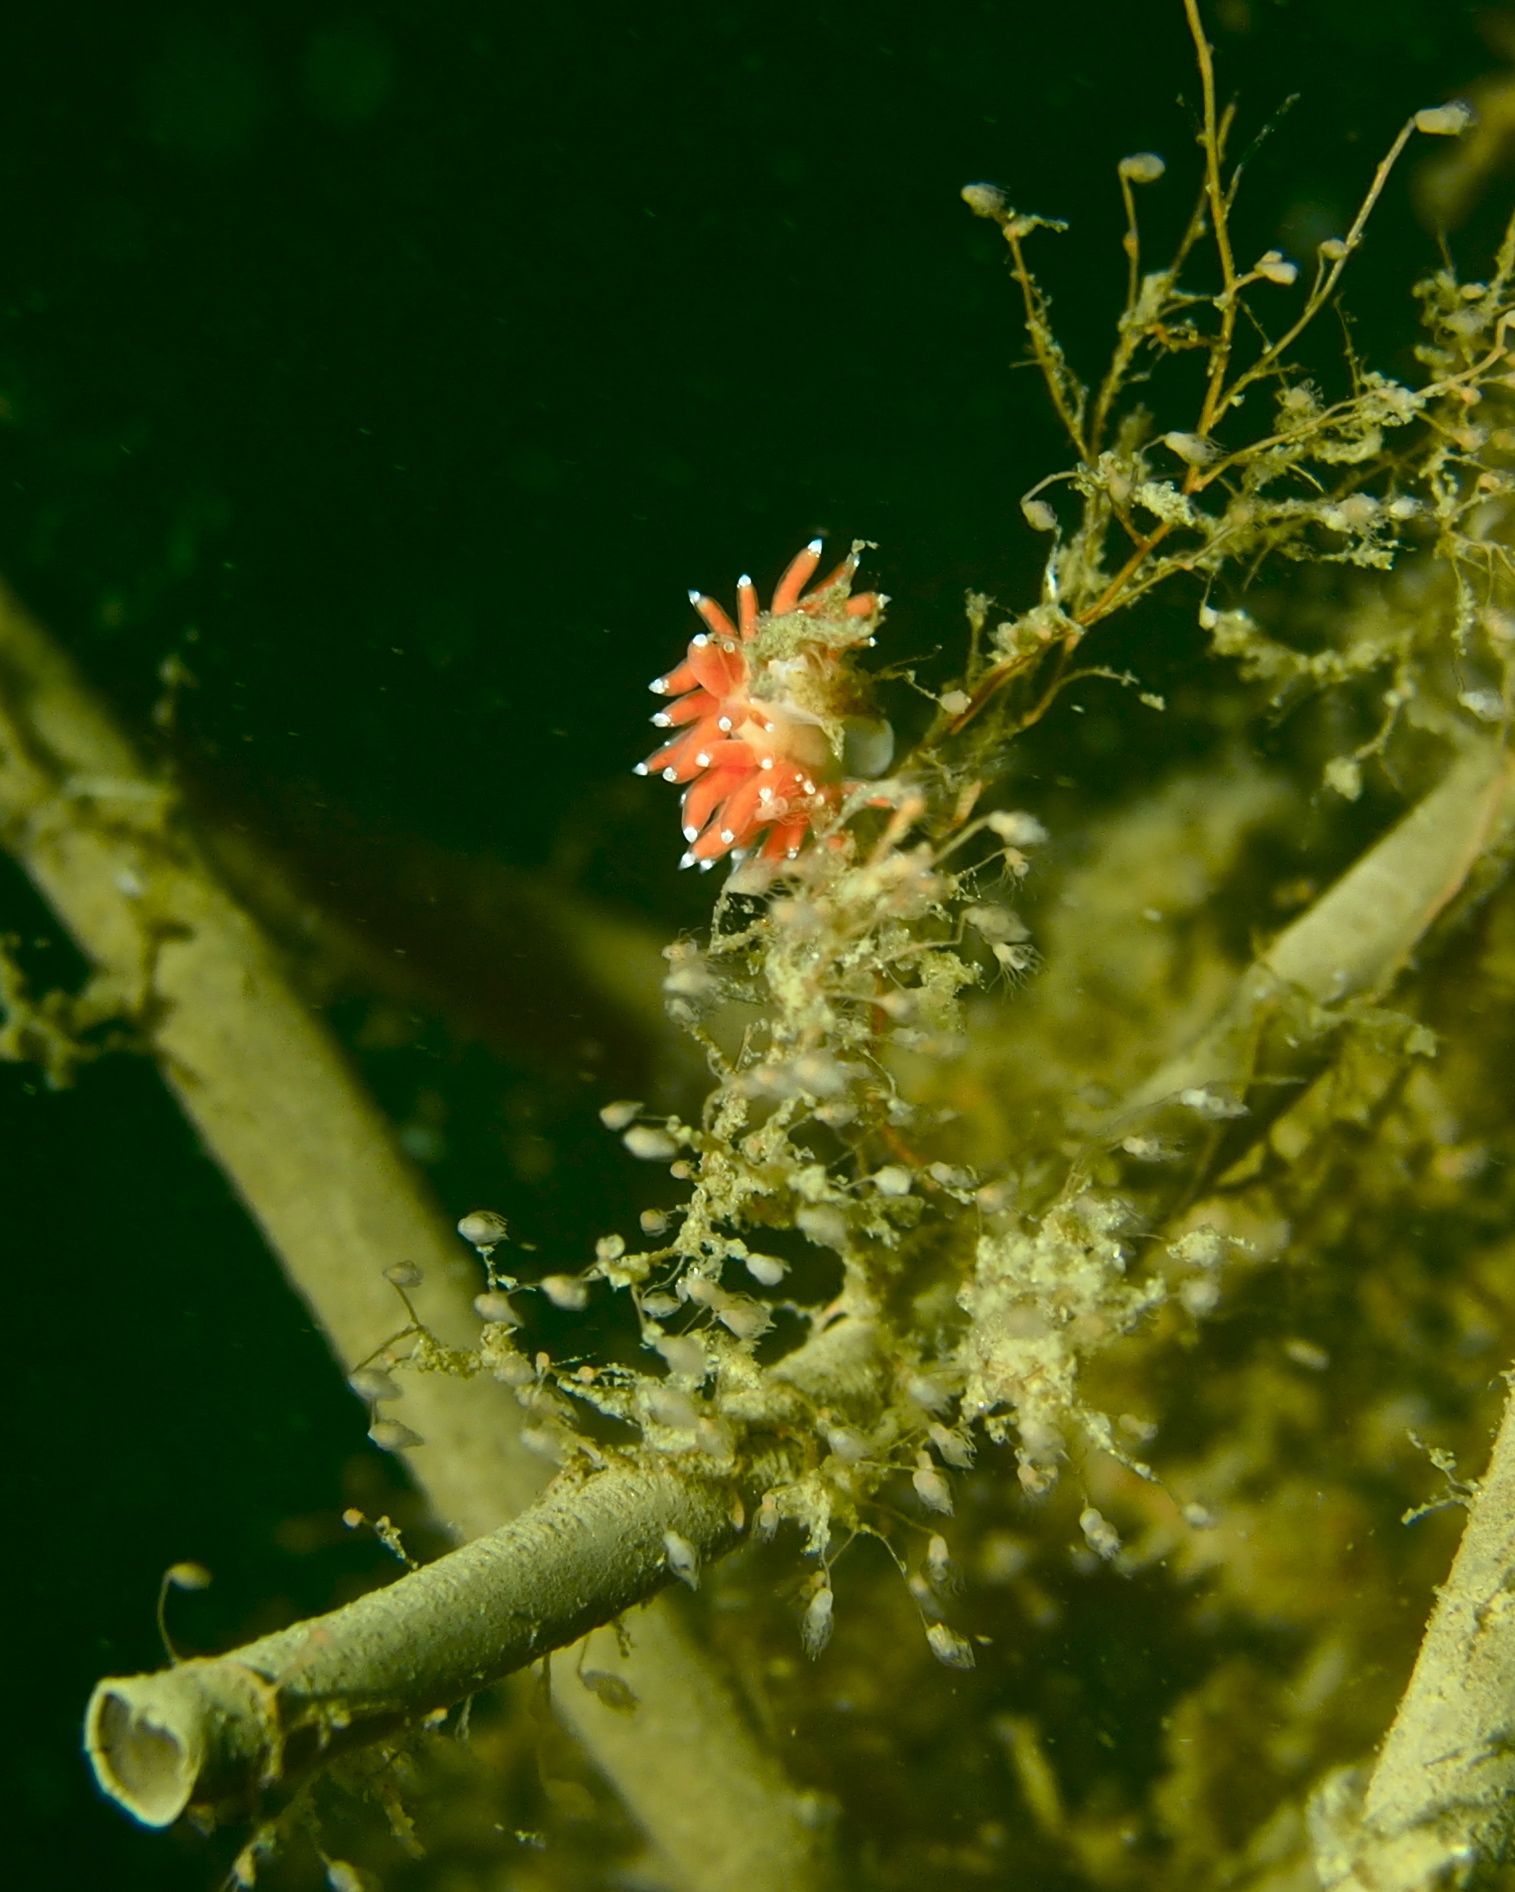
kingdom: Animalia
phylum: Mollusca
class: Gastropoda
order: Nudibranchia
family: Coryphellidae
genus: Coryphella
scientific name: Coryphella gracilis
